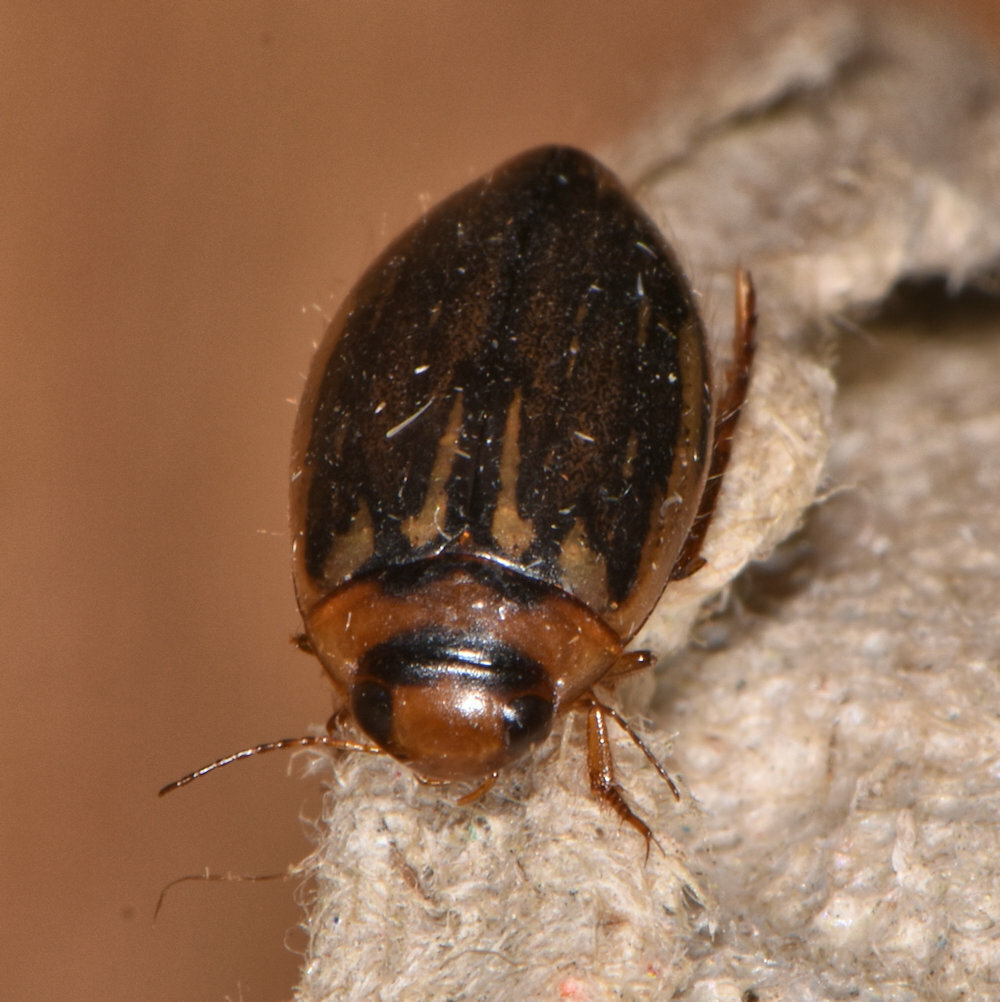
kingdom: Animalia
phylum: Arthropoda
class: Insecta
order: Coleoptera
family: Dytiscidae
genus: Coptotomus
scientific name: Coptotomus longulus
